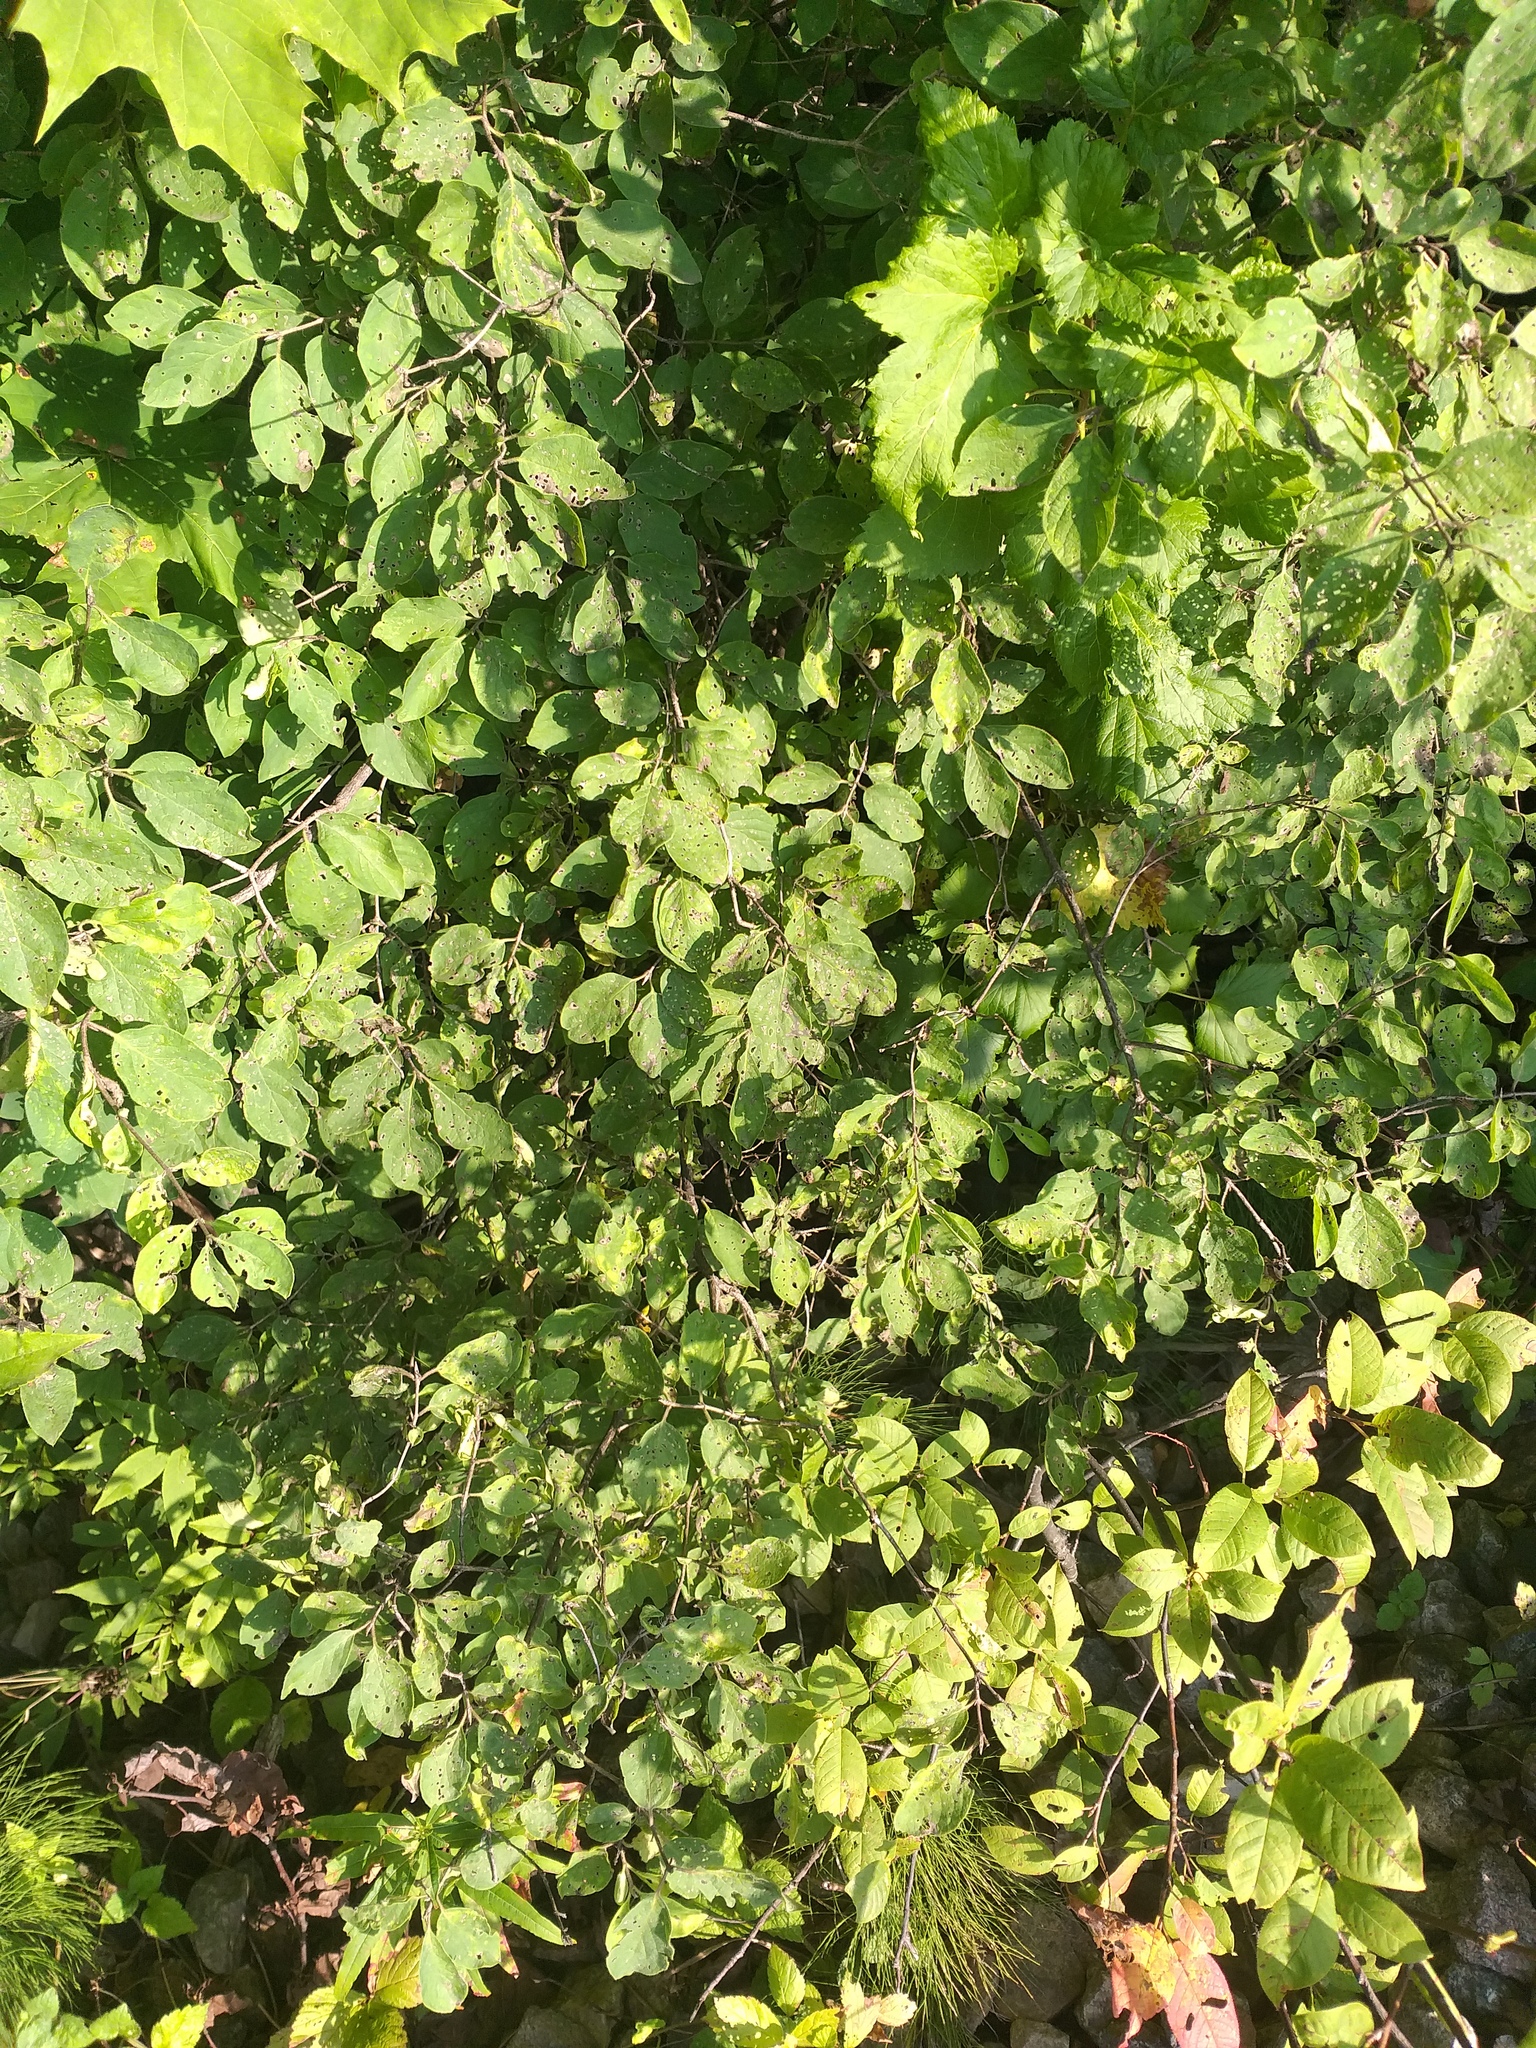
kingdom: Plantae
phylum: Tracheophyta
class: Magnoliopsida
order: Dipsacales
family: Caprifoliaceae
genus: Lonicera
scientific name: Lonicera xylosteum
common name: Fly honeysuckle
